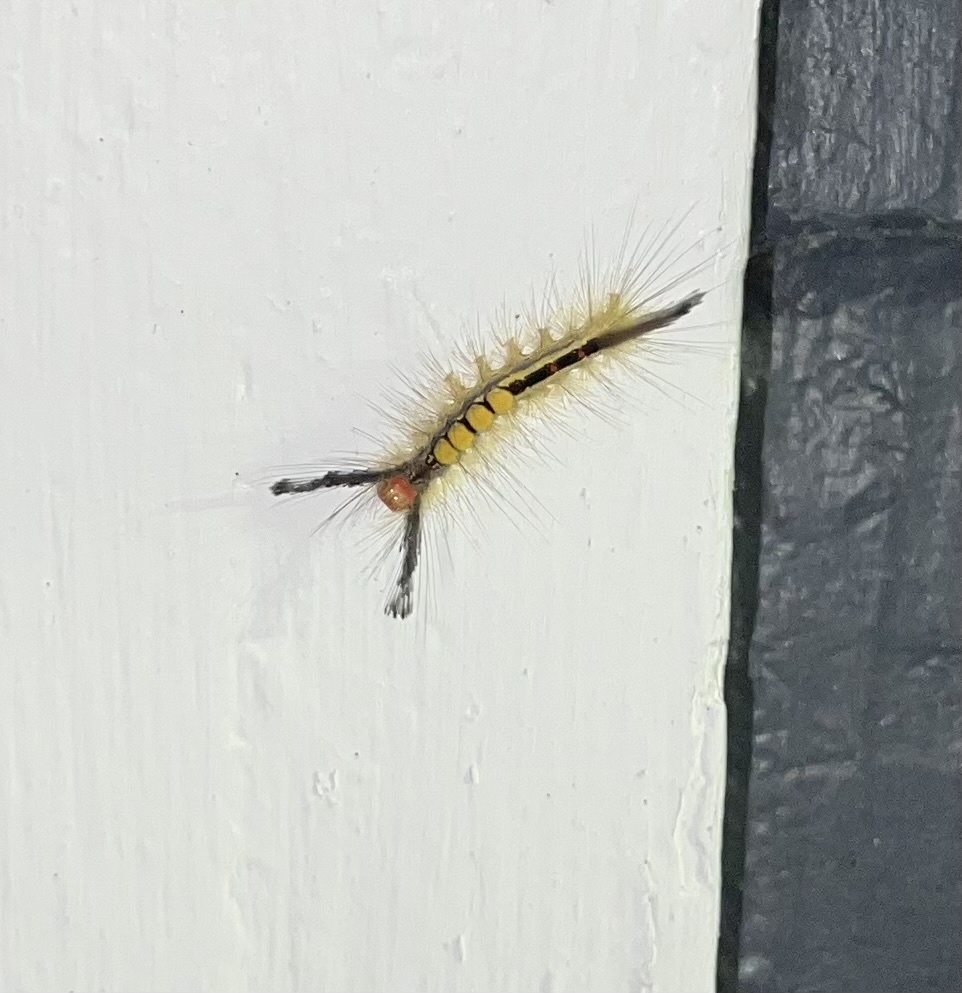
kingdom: Animalia
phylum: Arthropoda
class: Insecta
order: Lepidoptera
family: Erebidae
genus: Orgyia
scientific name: Orgyia leucostigma
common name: White-marked tussock moth
